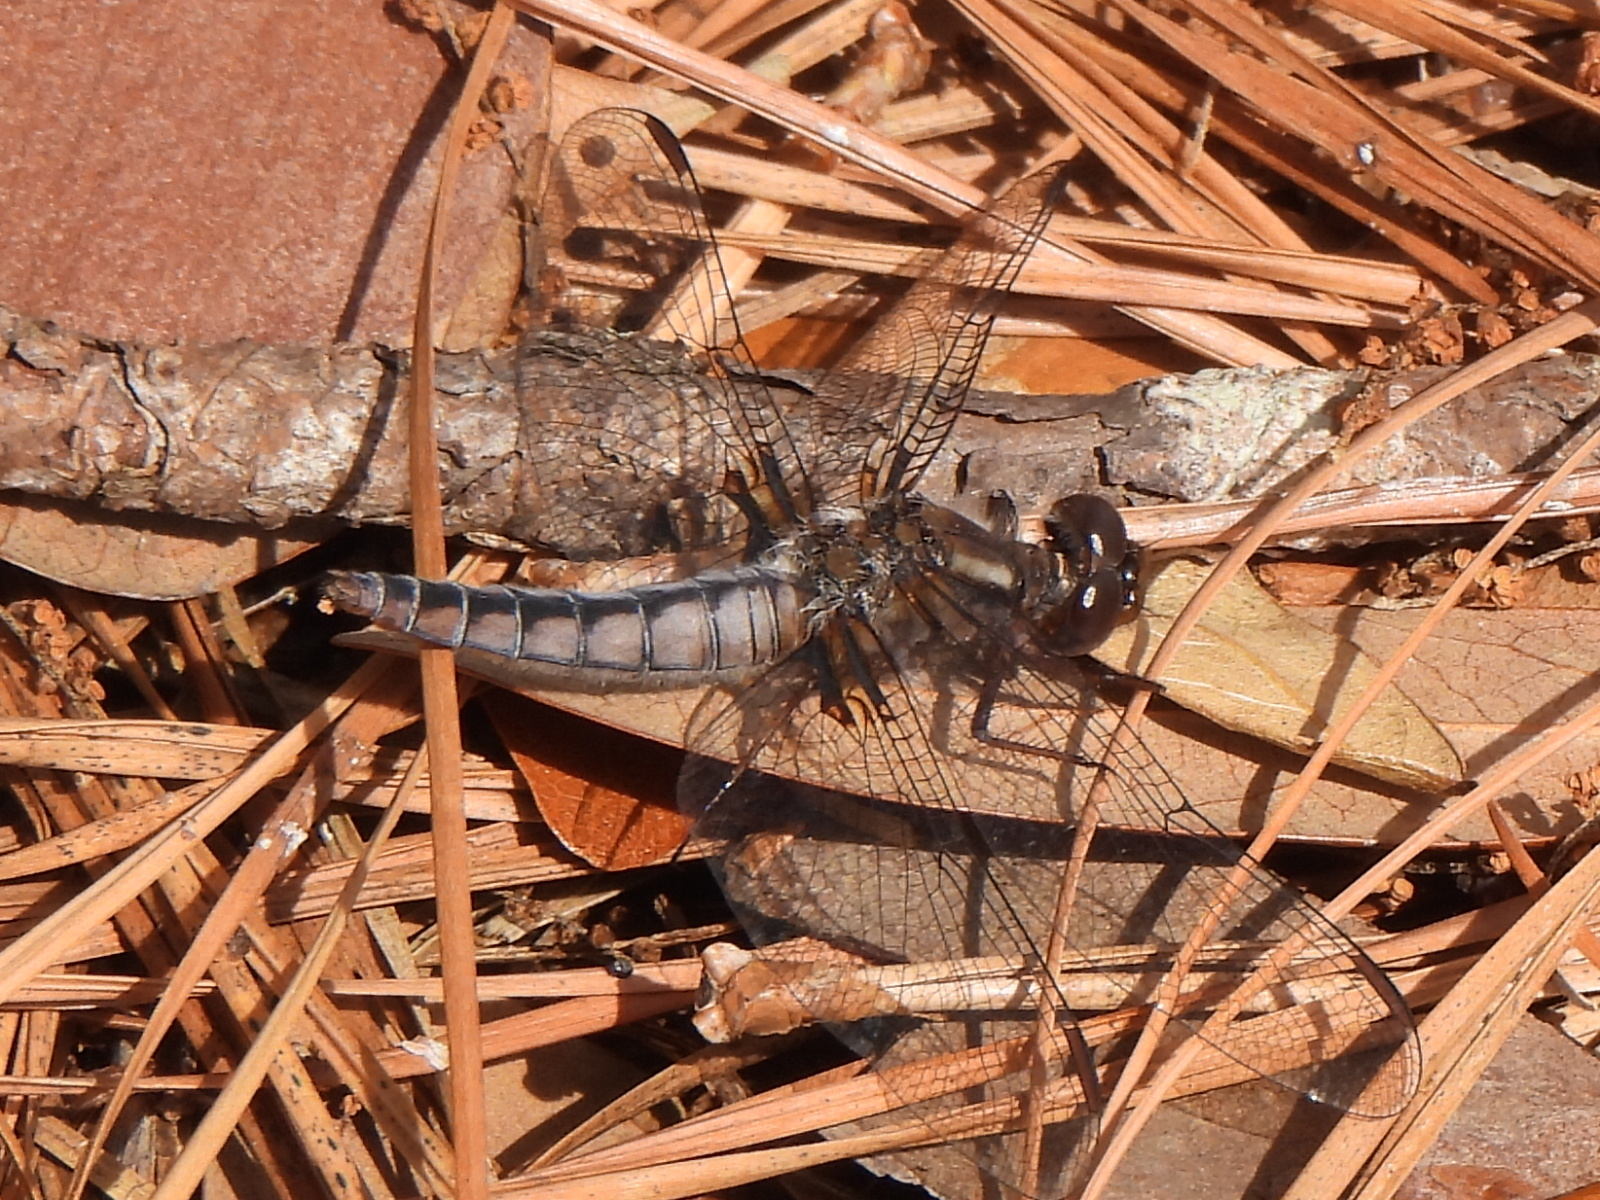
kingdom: Animalia
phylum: Arthropoda
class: Insecta
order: Odonata
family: Libellulidae
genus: Ladona
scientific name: Ladona deplanata
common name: Blue corporal
